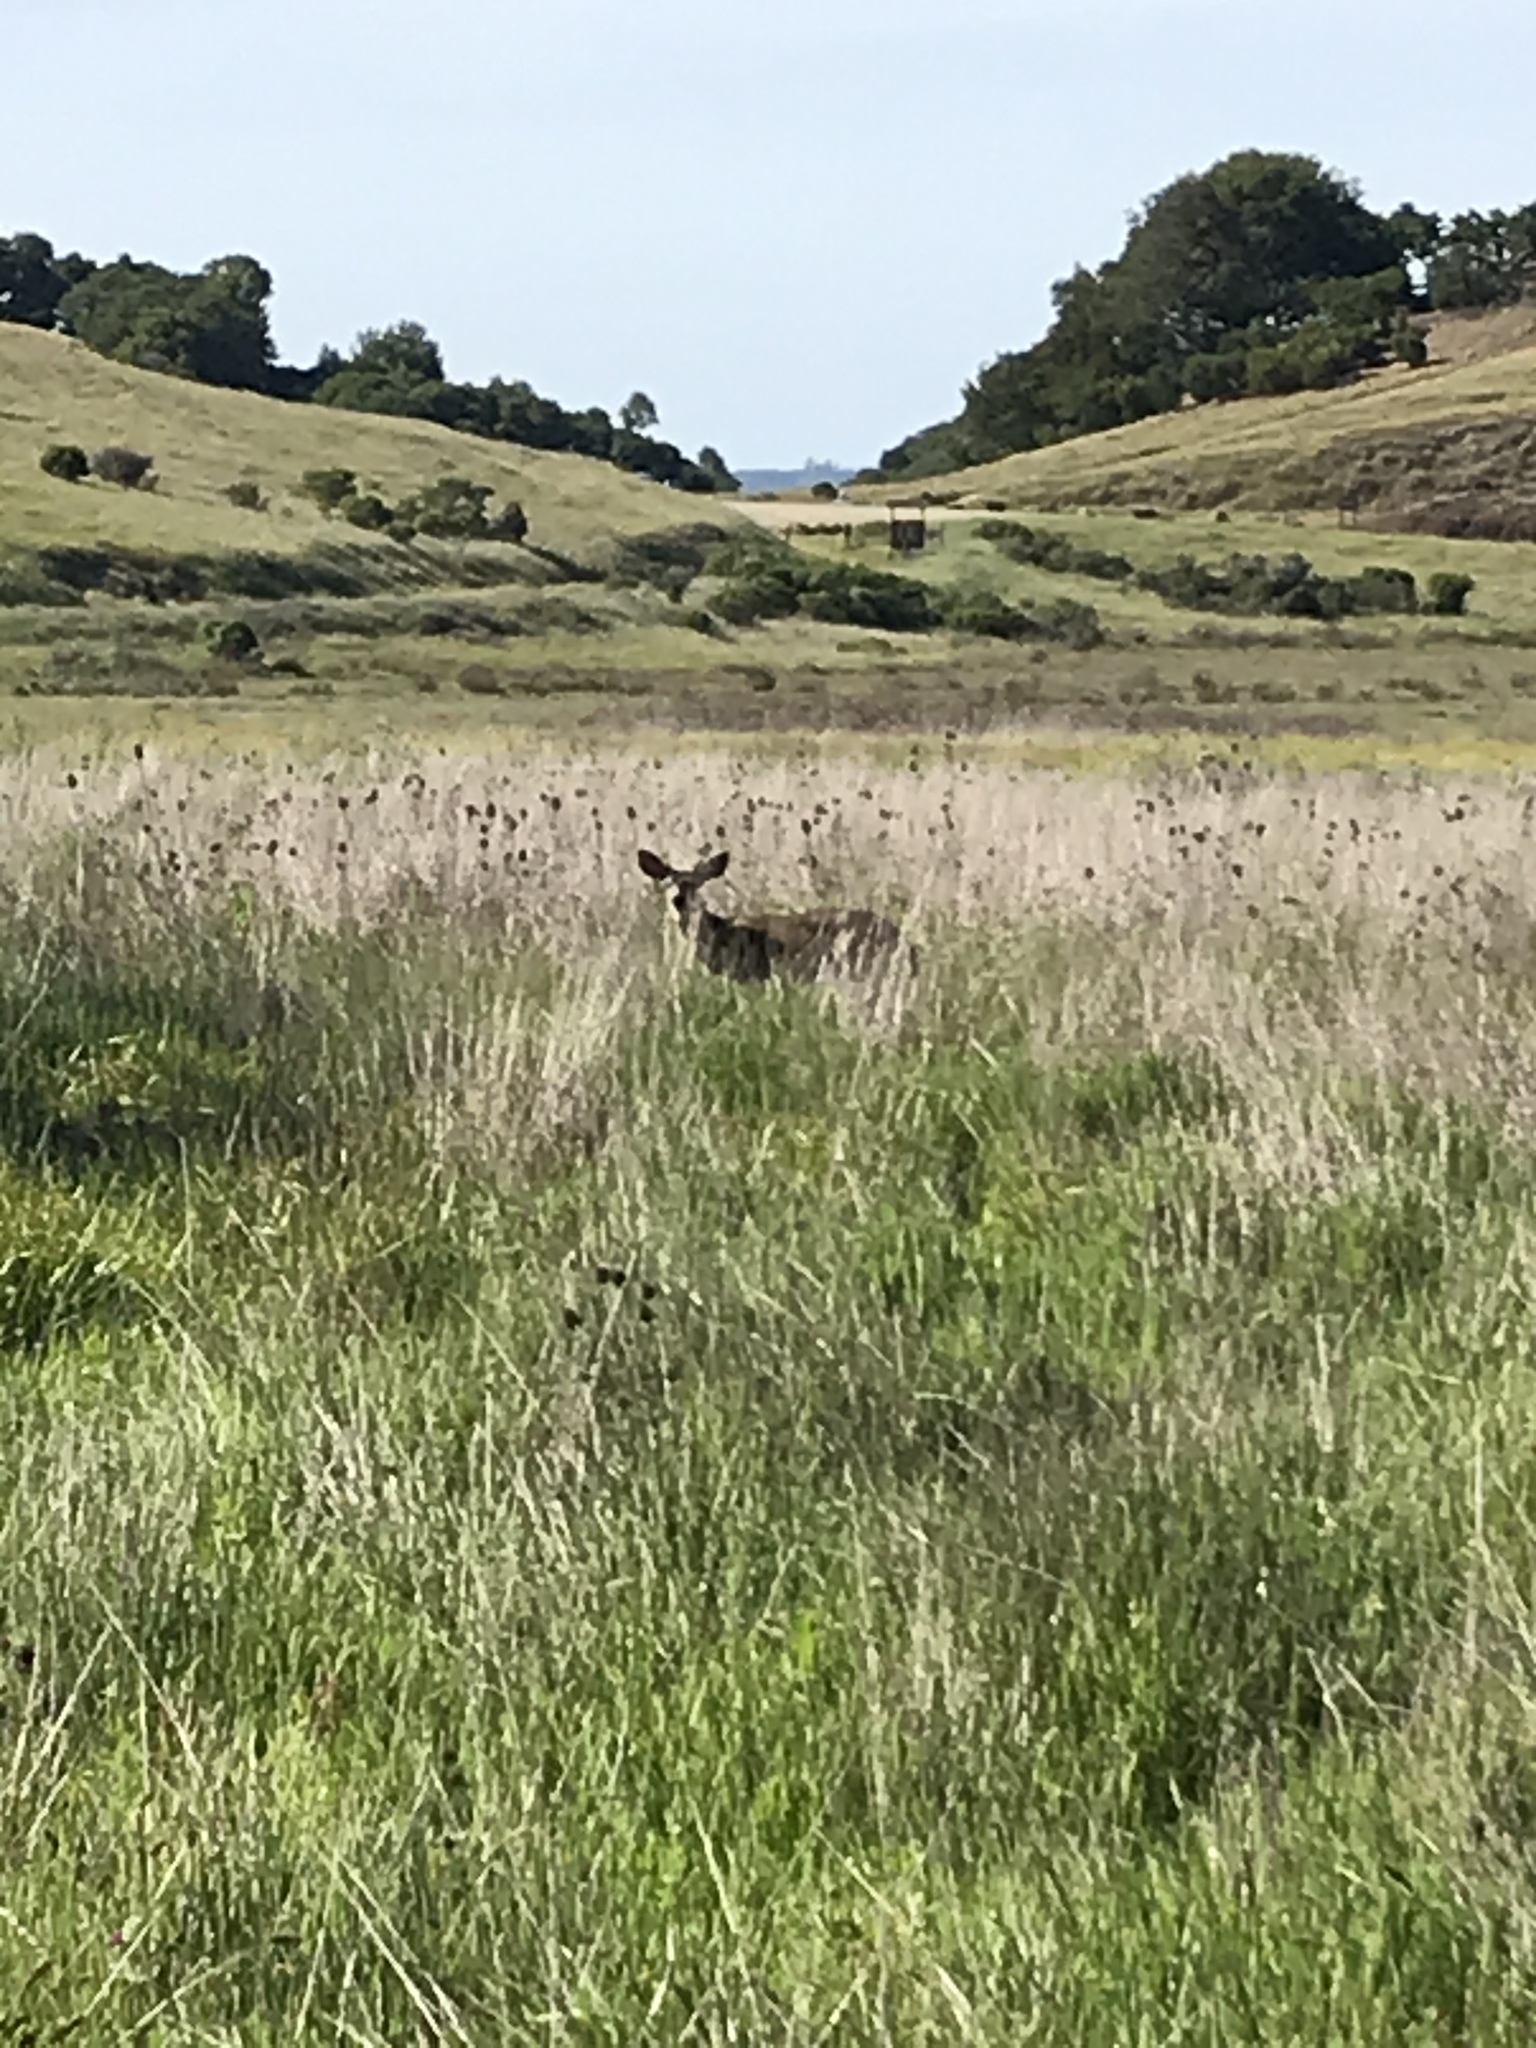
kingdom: Animalia
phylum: Chordata
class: Mammalia
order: Artiodactyla
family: Cervidae
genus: Odocoileus
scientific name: Odocoileus hemionus
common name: Mule deer
